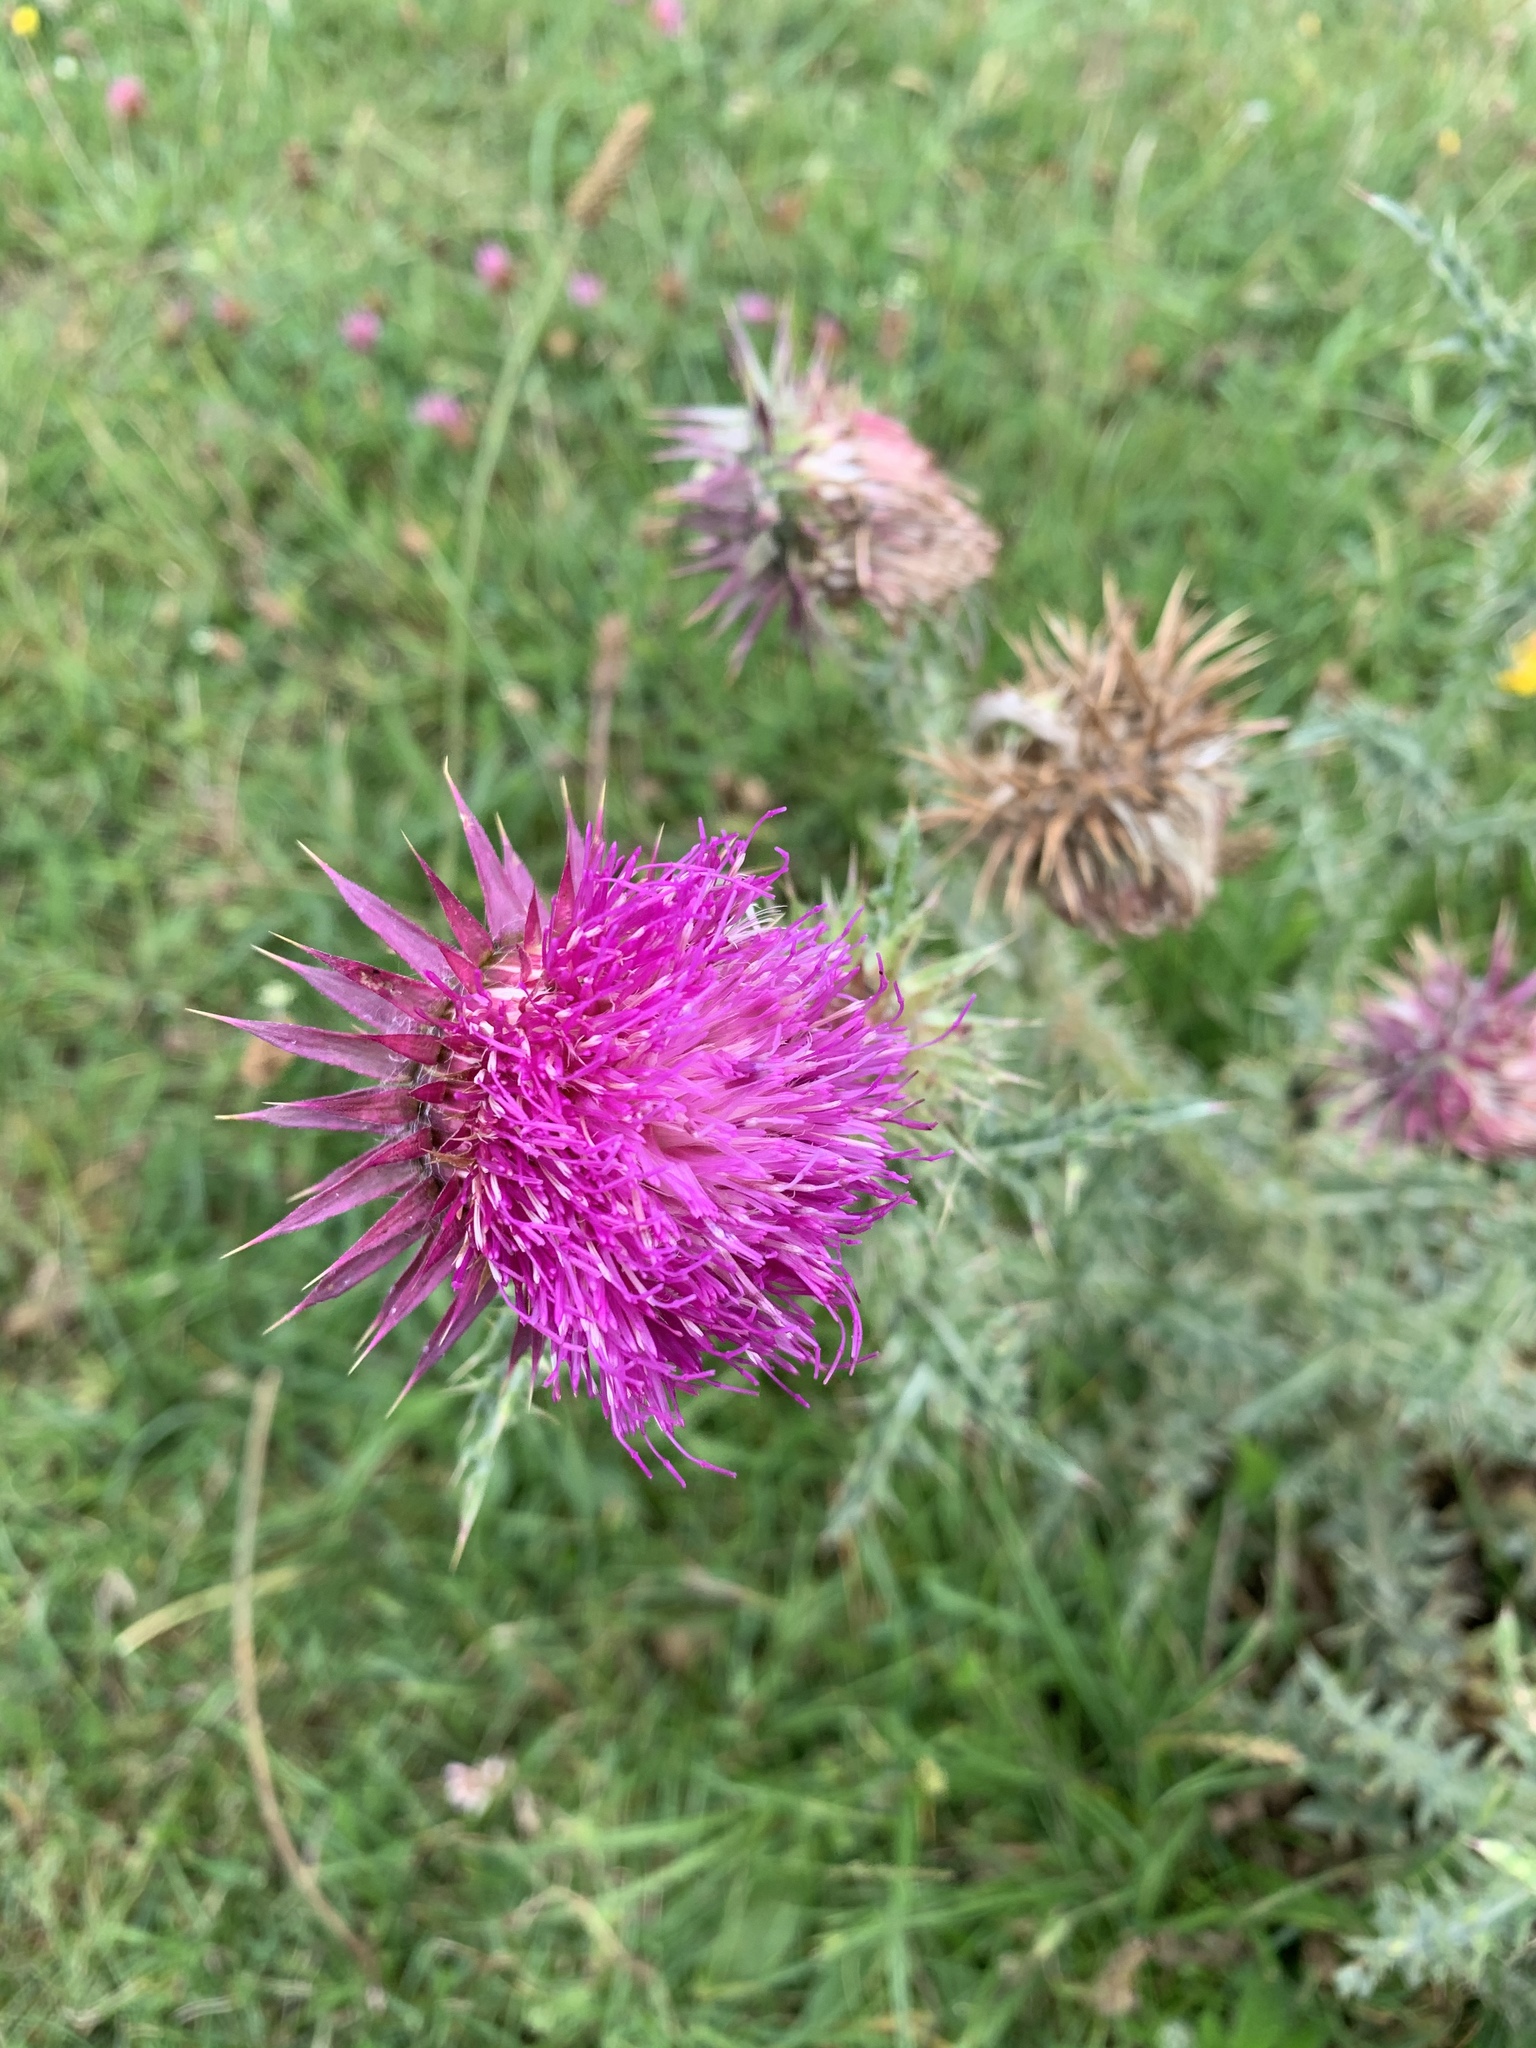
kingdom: Plantae
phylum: Tracheophyta
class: Magnoliopsida
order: Asterales
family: Asteraceae
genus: Carduus
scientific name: Carduus nutans
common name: Musk thistle
